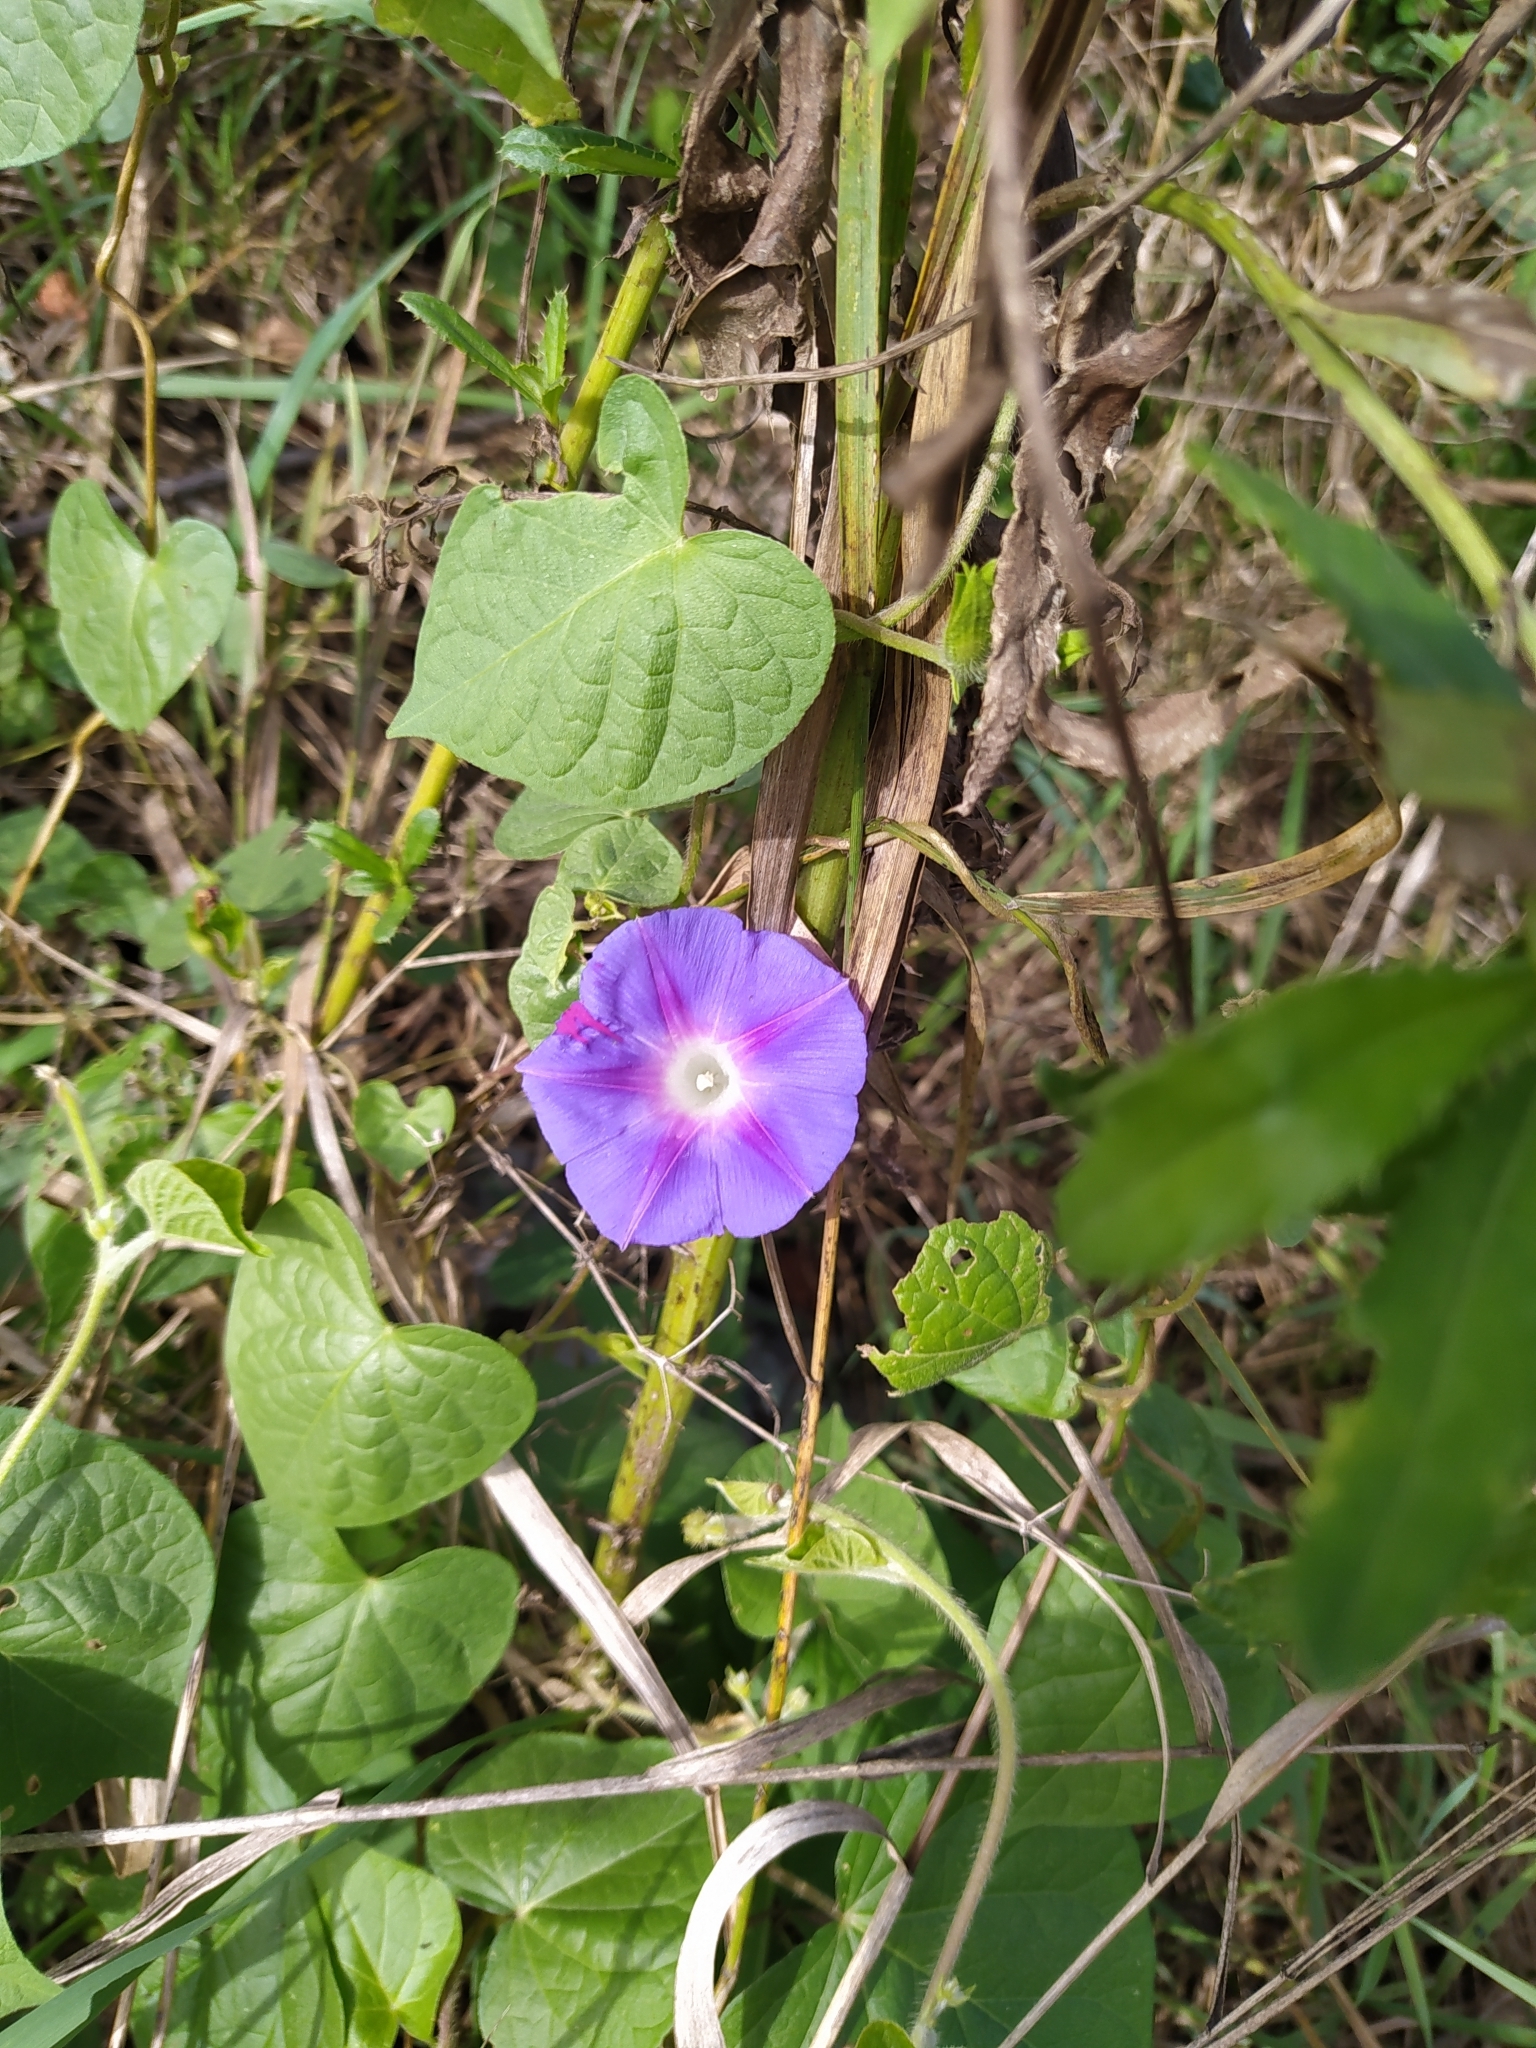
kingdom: Plantae
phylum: Tracheophyta
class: Magnoliopsida
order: Solanales
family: Convolvulaceae
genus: Ipomoea
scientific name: Ipomoea purpurea
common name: Common morning-glory
